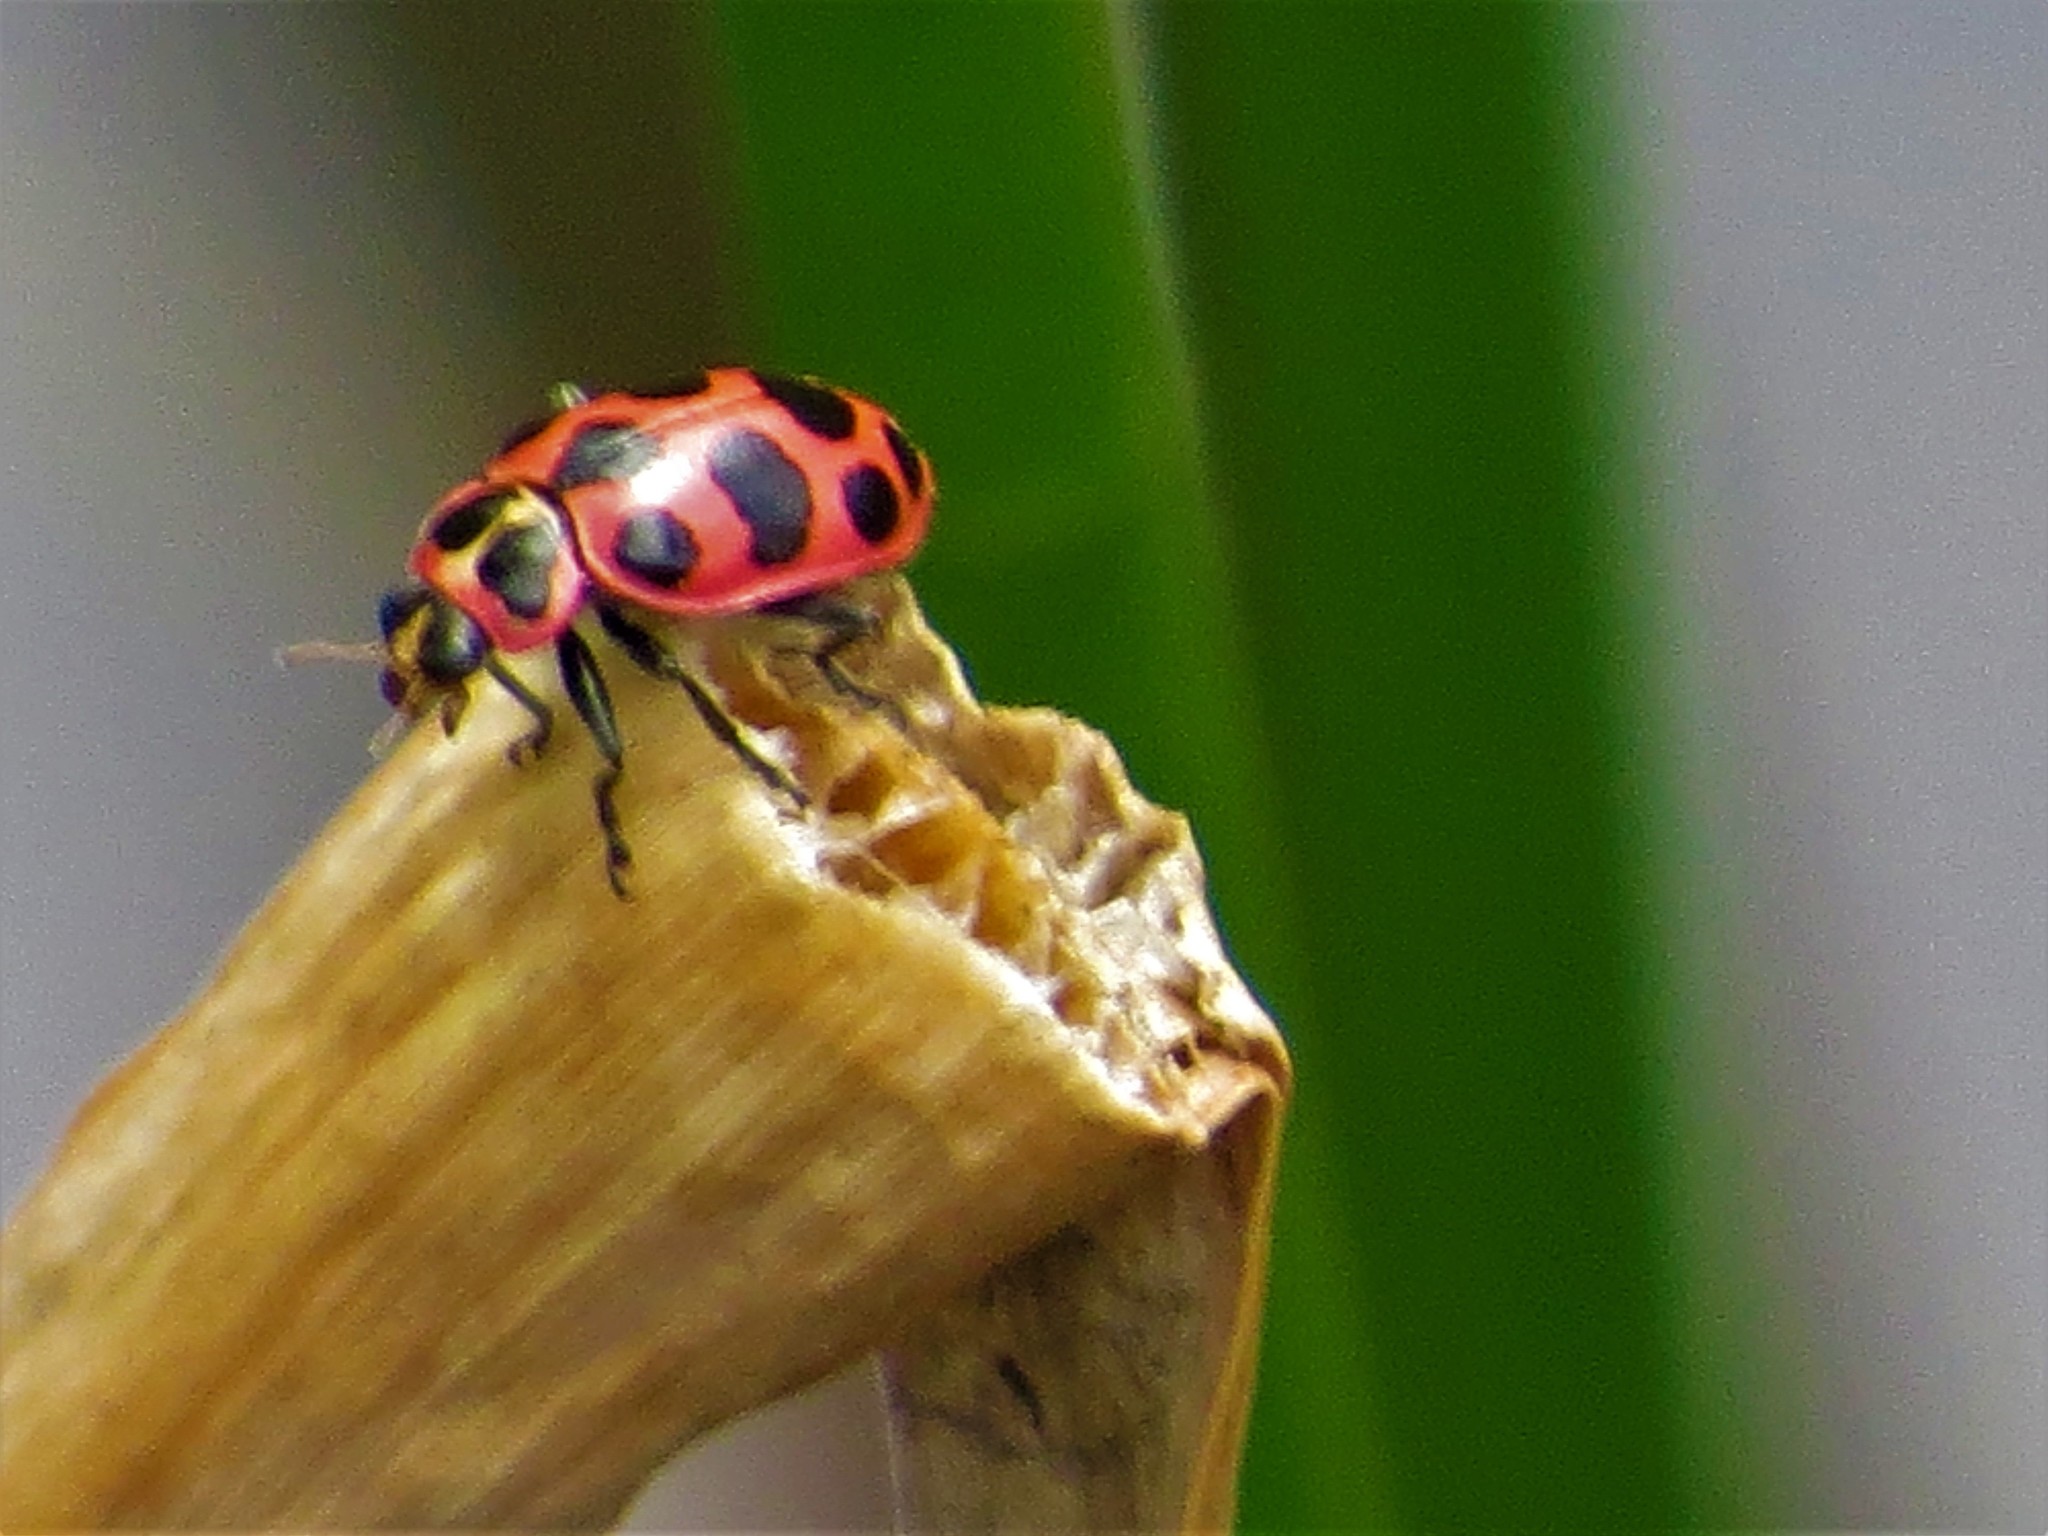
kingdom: Animalia
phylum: Arthropoda
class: Insecta
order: Coleoptera
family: Coccinellidae
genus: Coleomegilla
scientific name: Coleomegilla maculata
